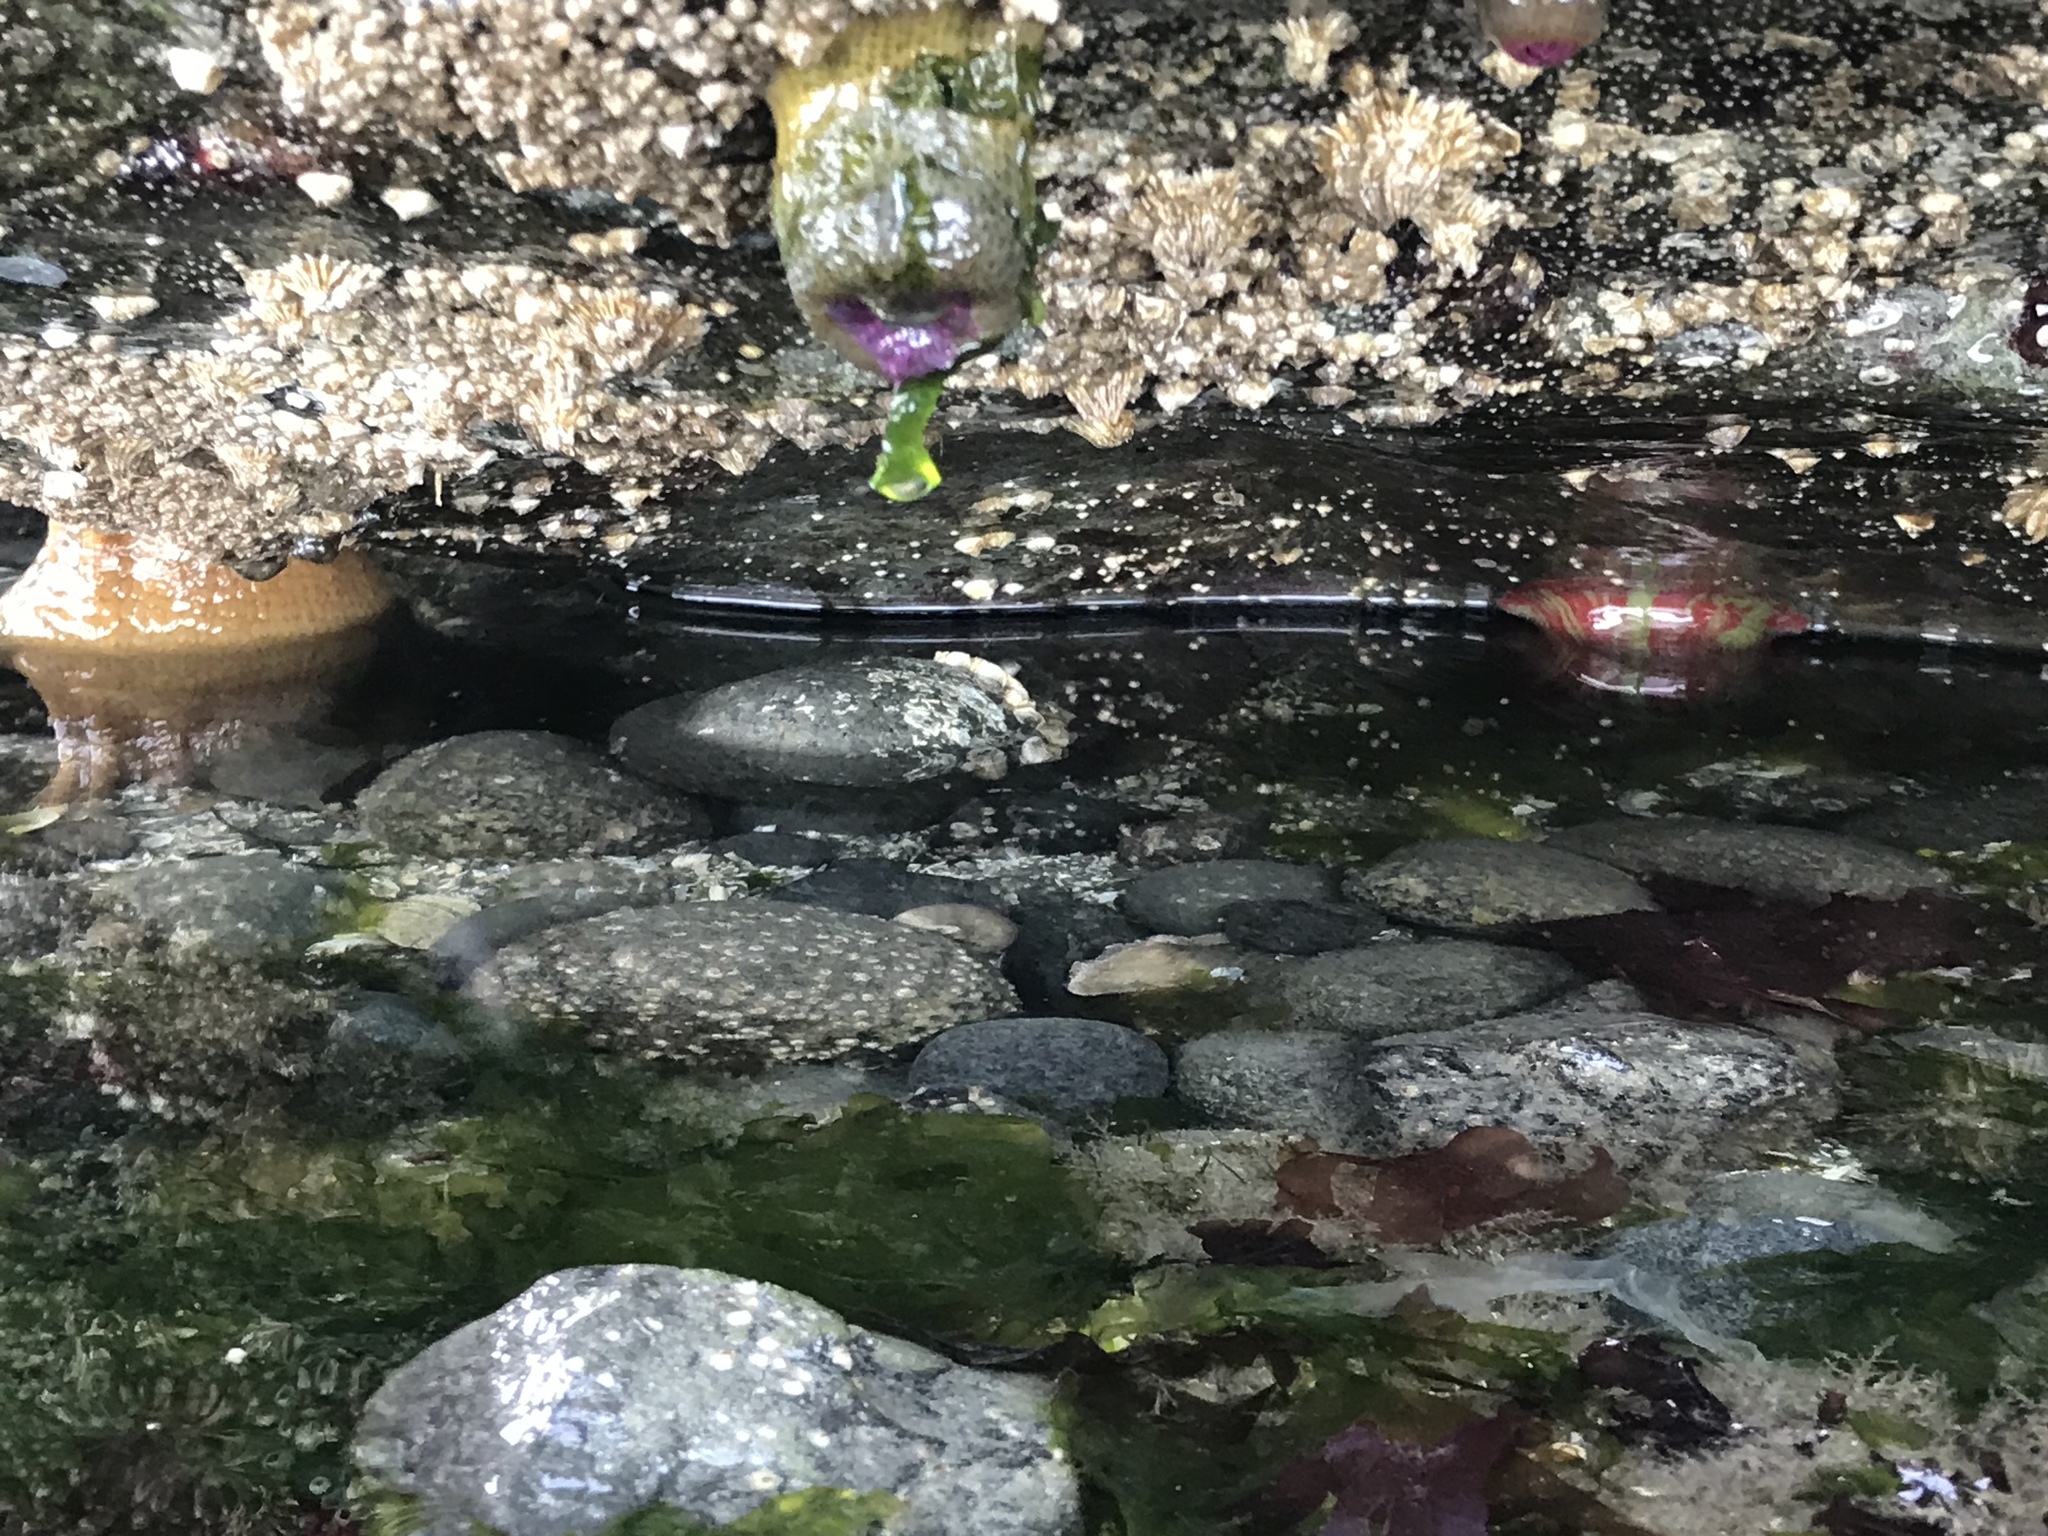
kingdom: Animalia
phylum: Cnidaria
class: Anthozoa
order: Actiniaria
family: Actiniidae
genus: Urticina
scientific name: Urticina grebelnyi
